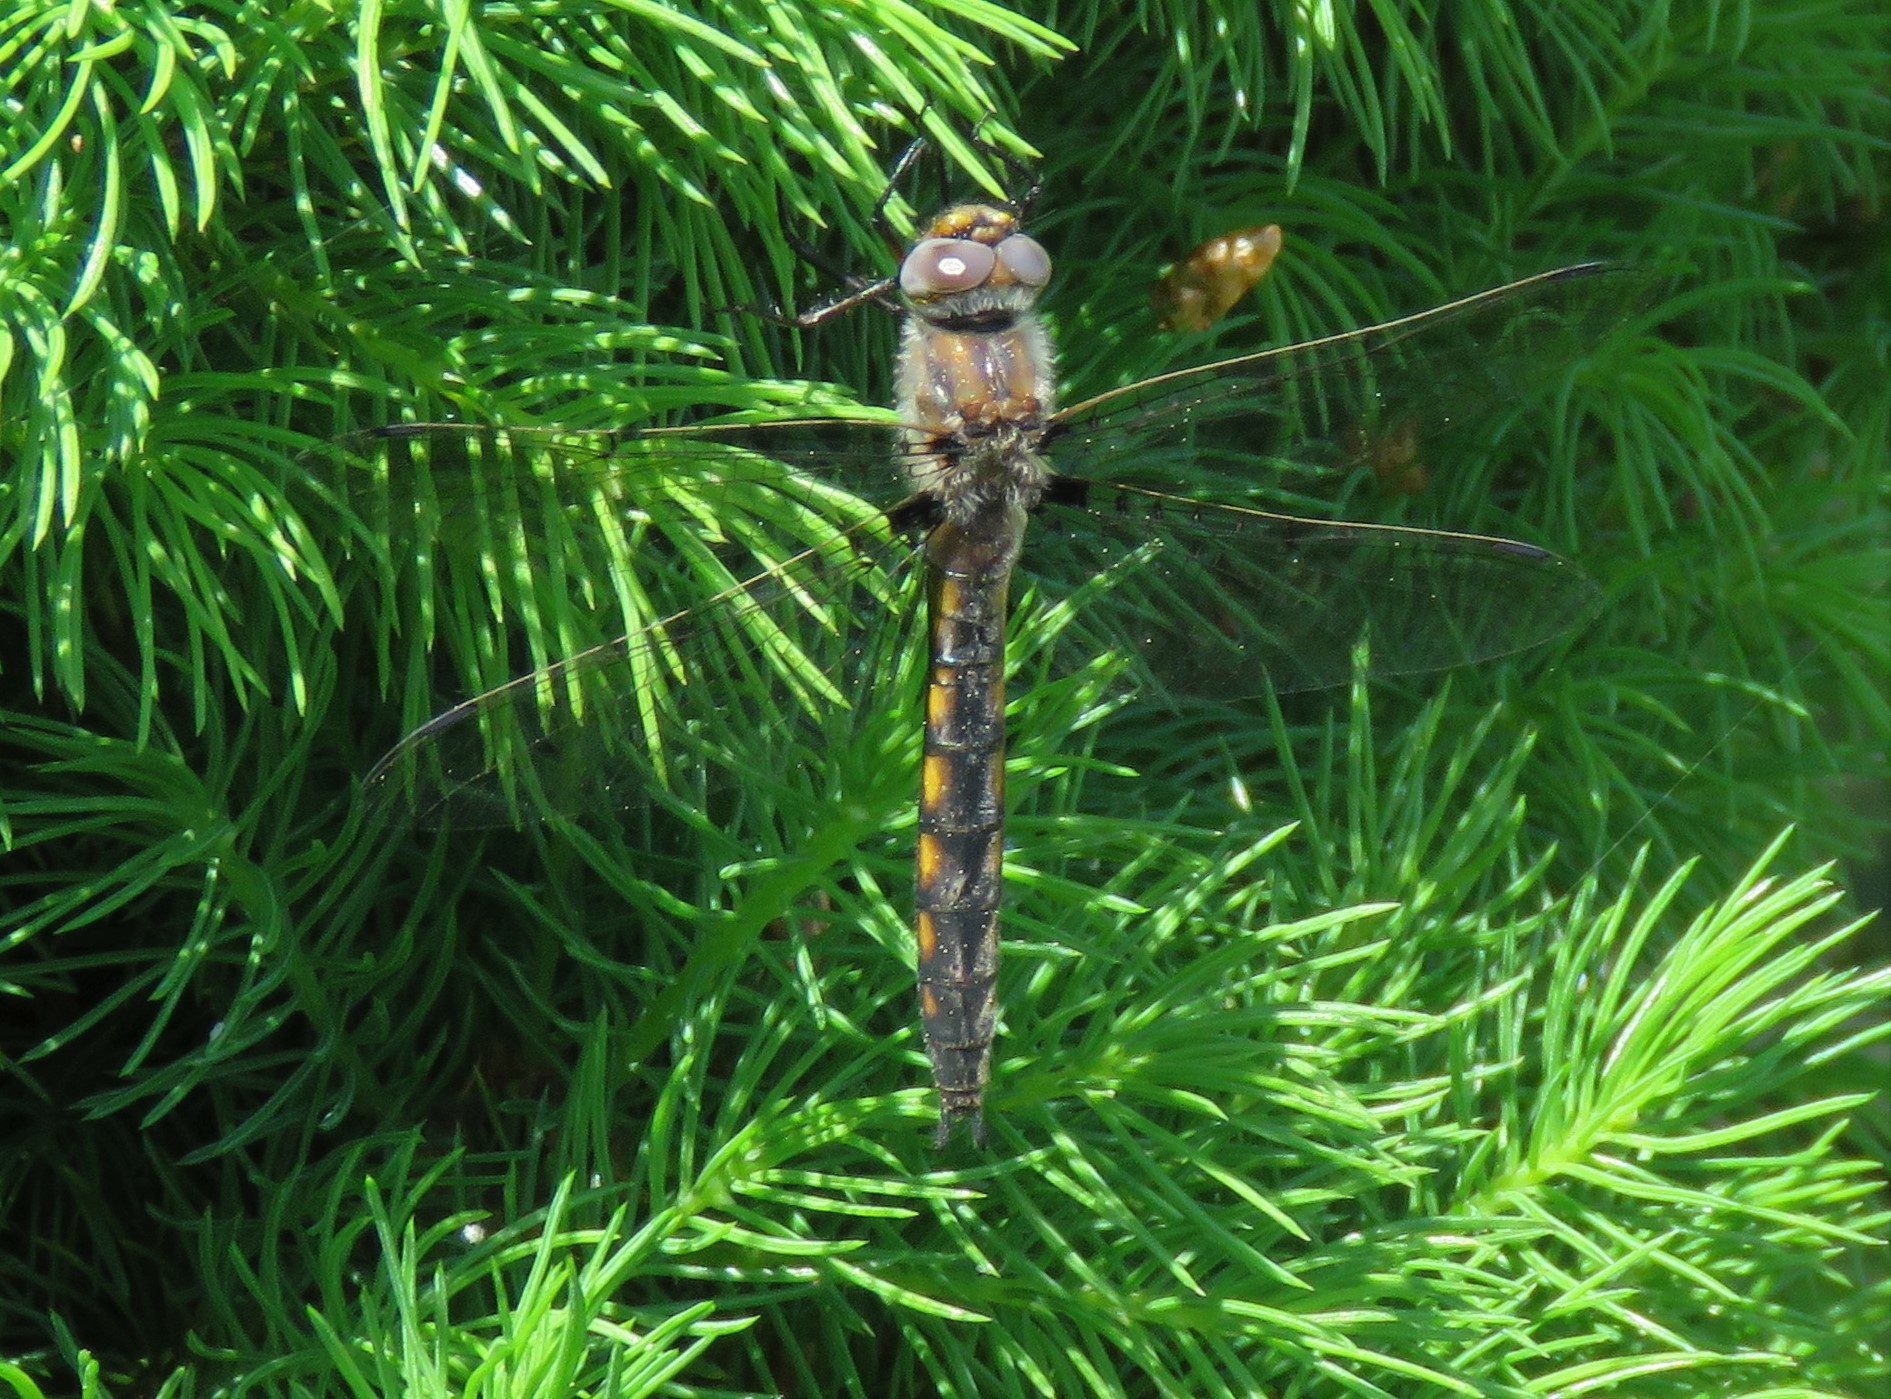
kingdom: Animalia
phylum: Arthropoda
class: Insecta
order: Odonata
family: Corduliidae
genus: Epitheca
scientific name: Epitheca canis
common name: Beaverpond baskettail
